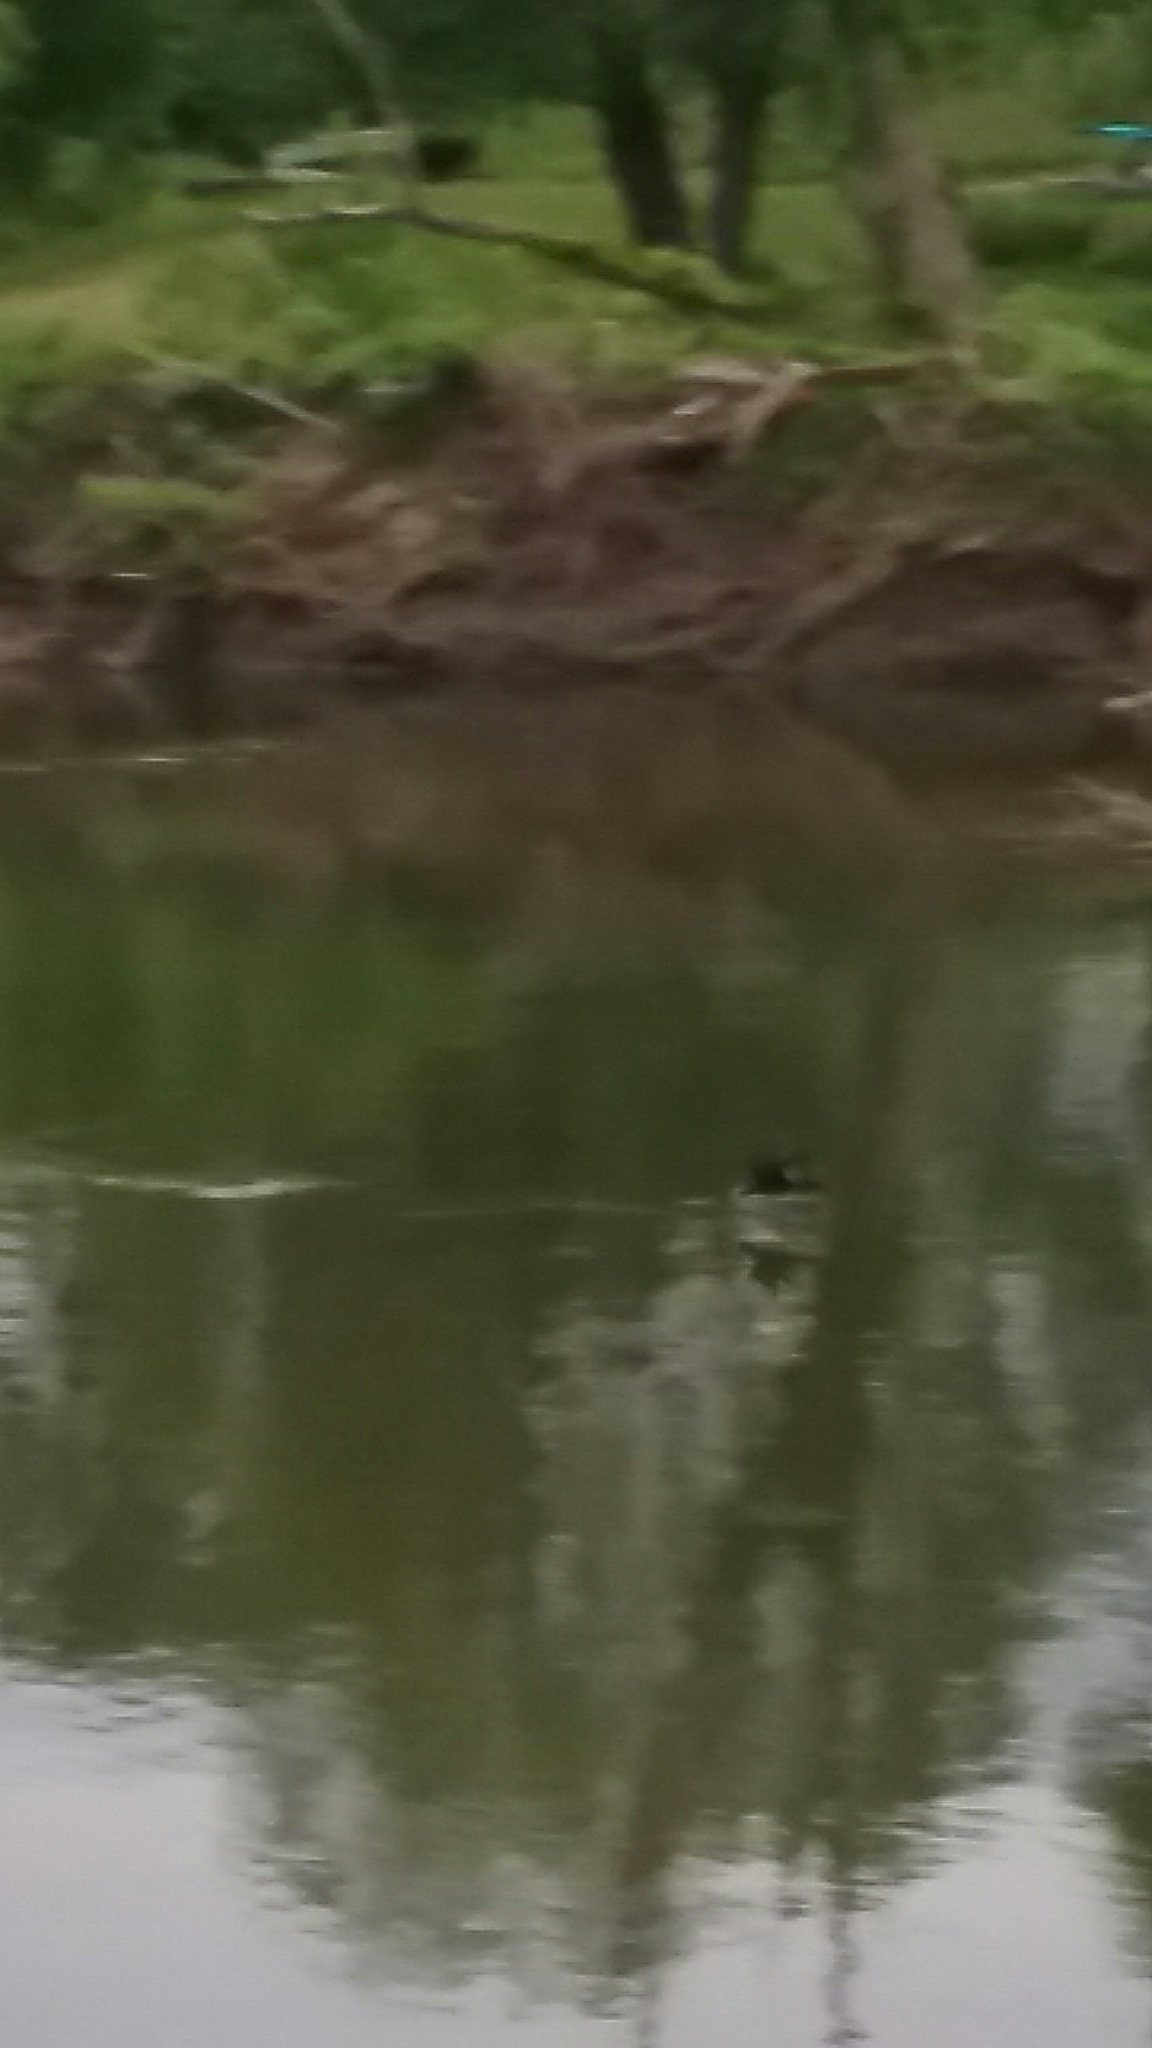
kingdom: Animalia
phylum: Chordata
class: Aves
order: Suliformes
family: Phalacrocoracidae
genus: Phalacrocorax
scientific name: Phalacrocorax auritus
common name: Double-crested cormorant
